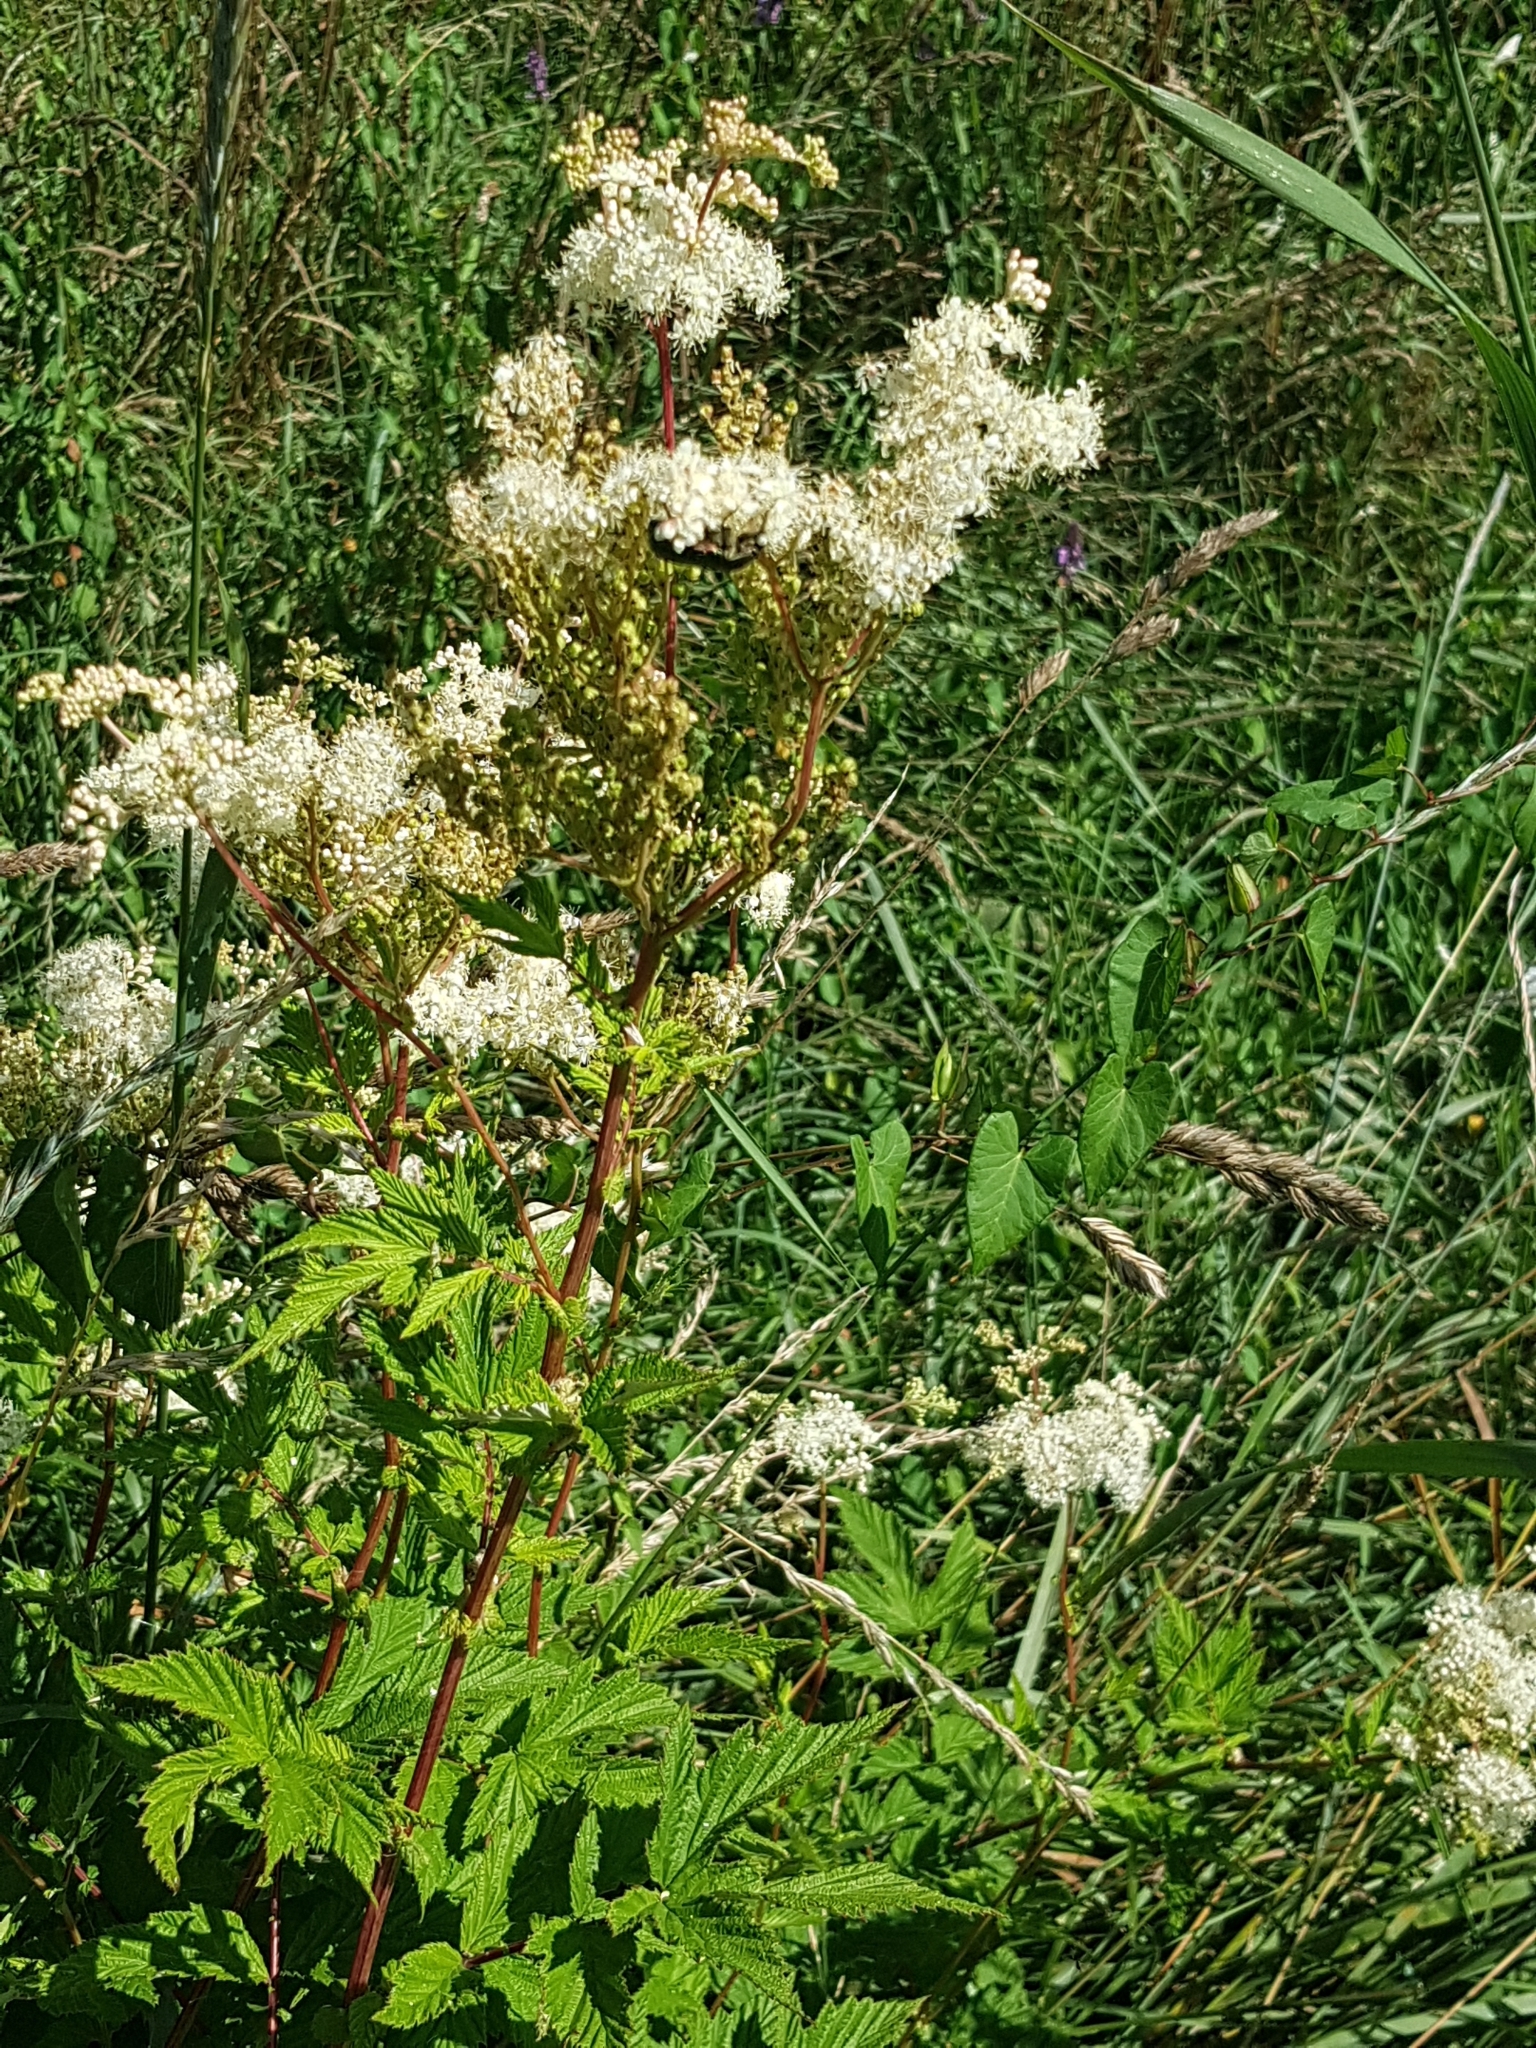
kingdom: Plantae
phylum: Tracheophyta
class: Magnoliopsida
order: Rosales
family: Rosaceae
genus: Filipendula
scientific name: Filipendula ulmaria
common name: Meadowsweet
